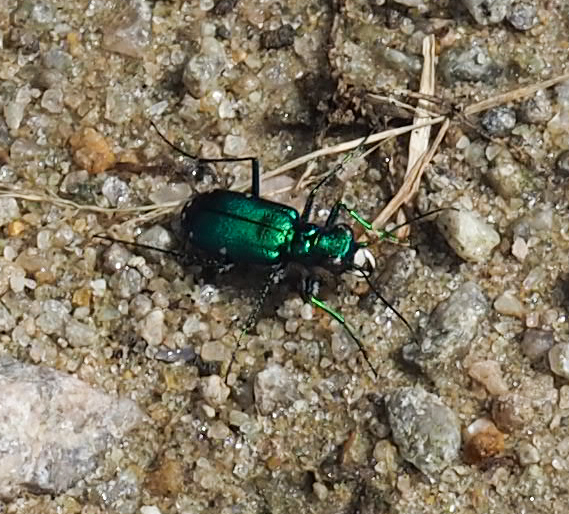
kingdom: Animalia
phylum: Arthropoda
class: Insecta
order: Coleoptera
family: Carabidae
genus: Cicindela
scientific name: Cicindela sexguttata
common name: Six-spotted tiger beetle
